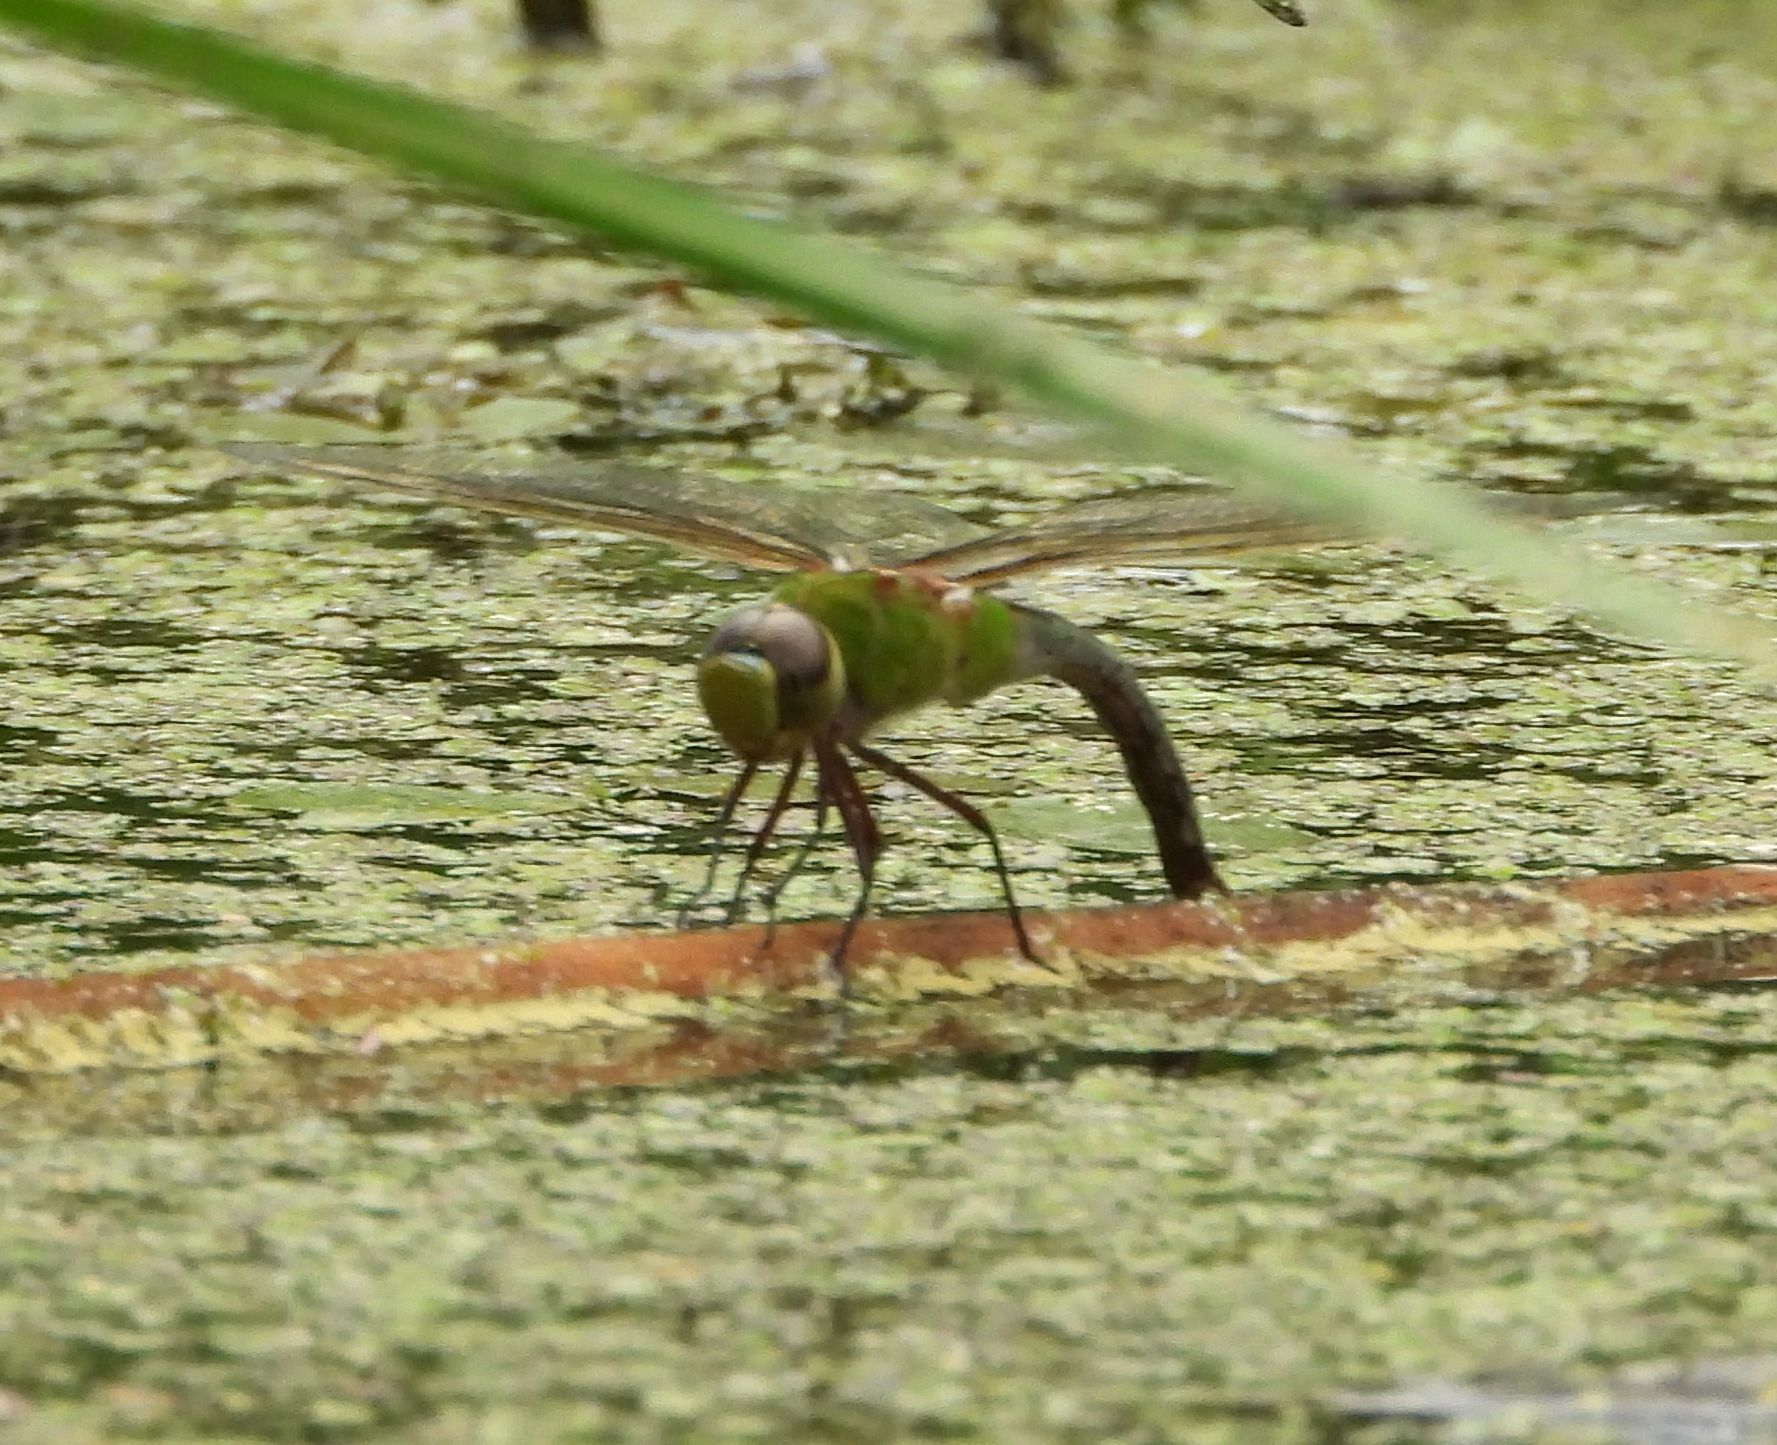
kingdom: Animalia
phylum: Arthropoda
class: Insecta
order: Odonata
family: Aeshnidae
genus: Anax
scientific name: Anax junius
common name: Common green darner
